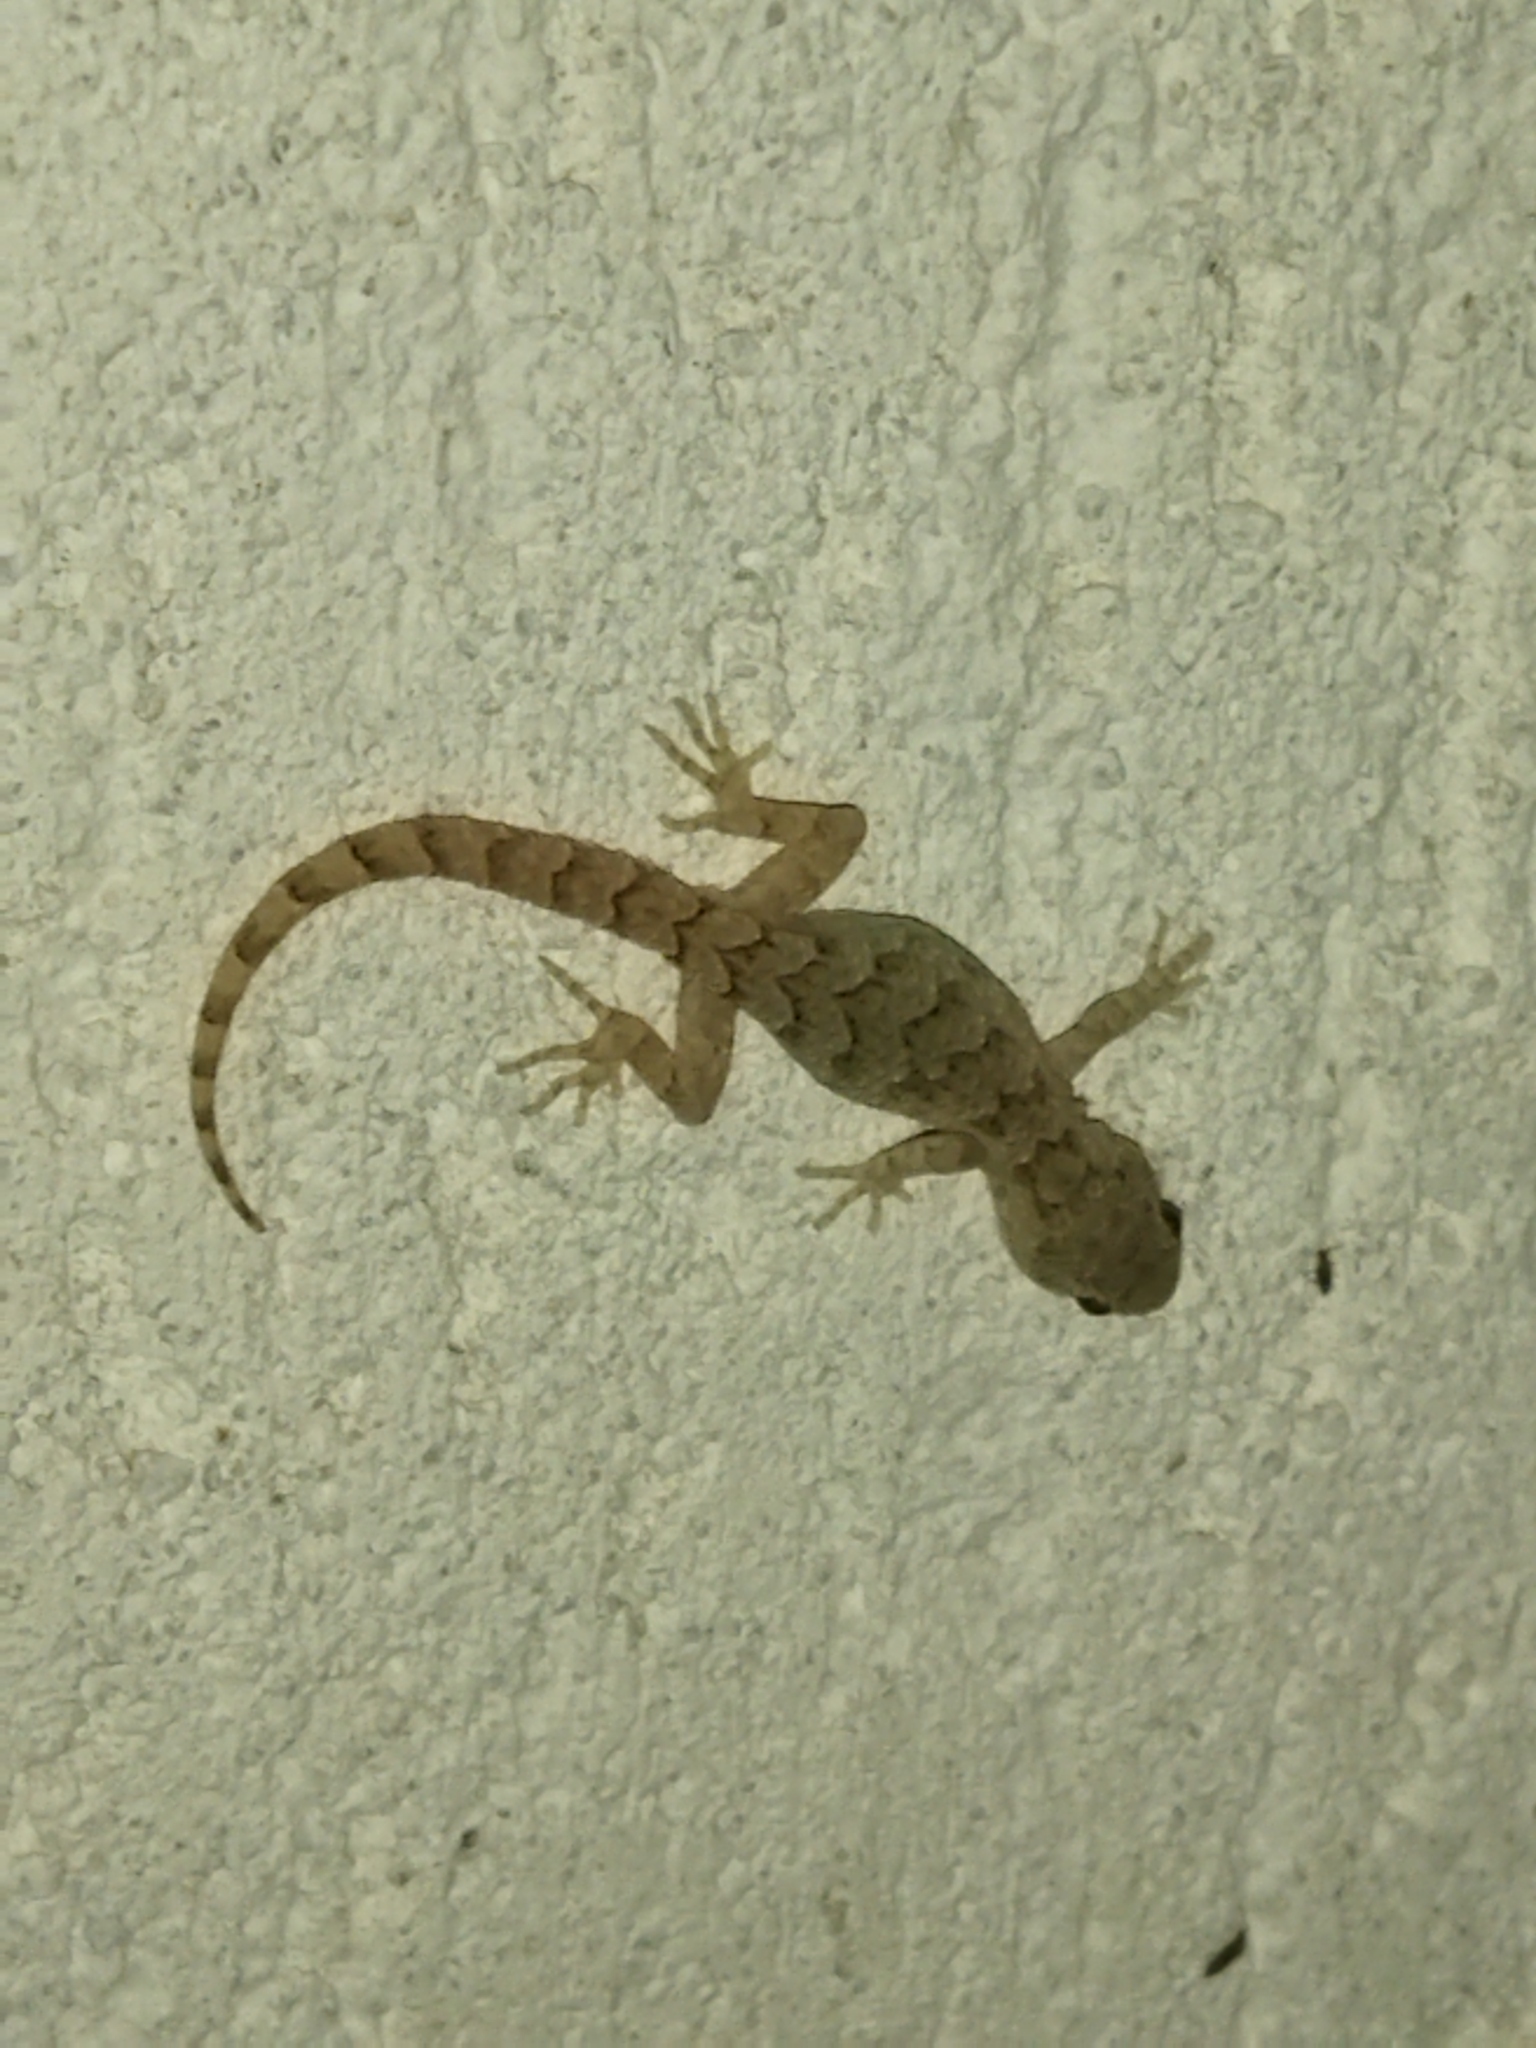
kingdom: Animalia
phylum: Chordata
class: Squamata
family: Gekkonidae
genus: Mediodactylus
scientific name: Mediodactylus kotschyi
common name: Kotschy's gecko
